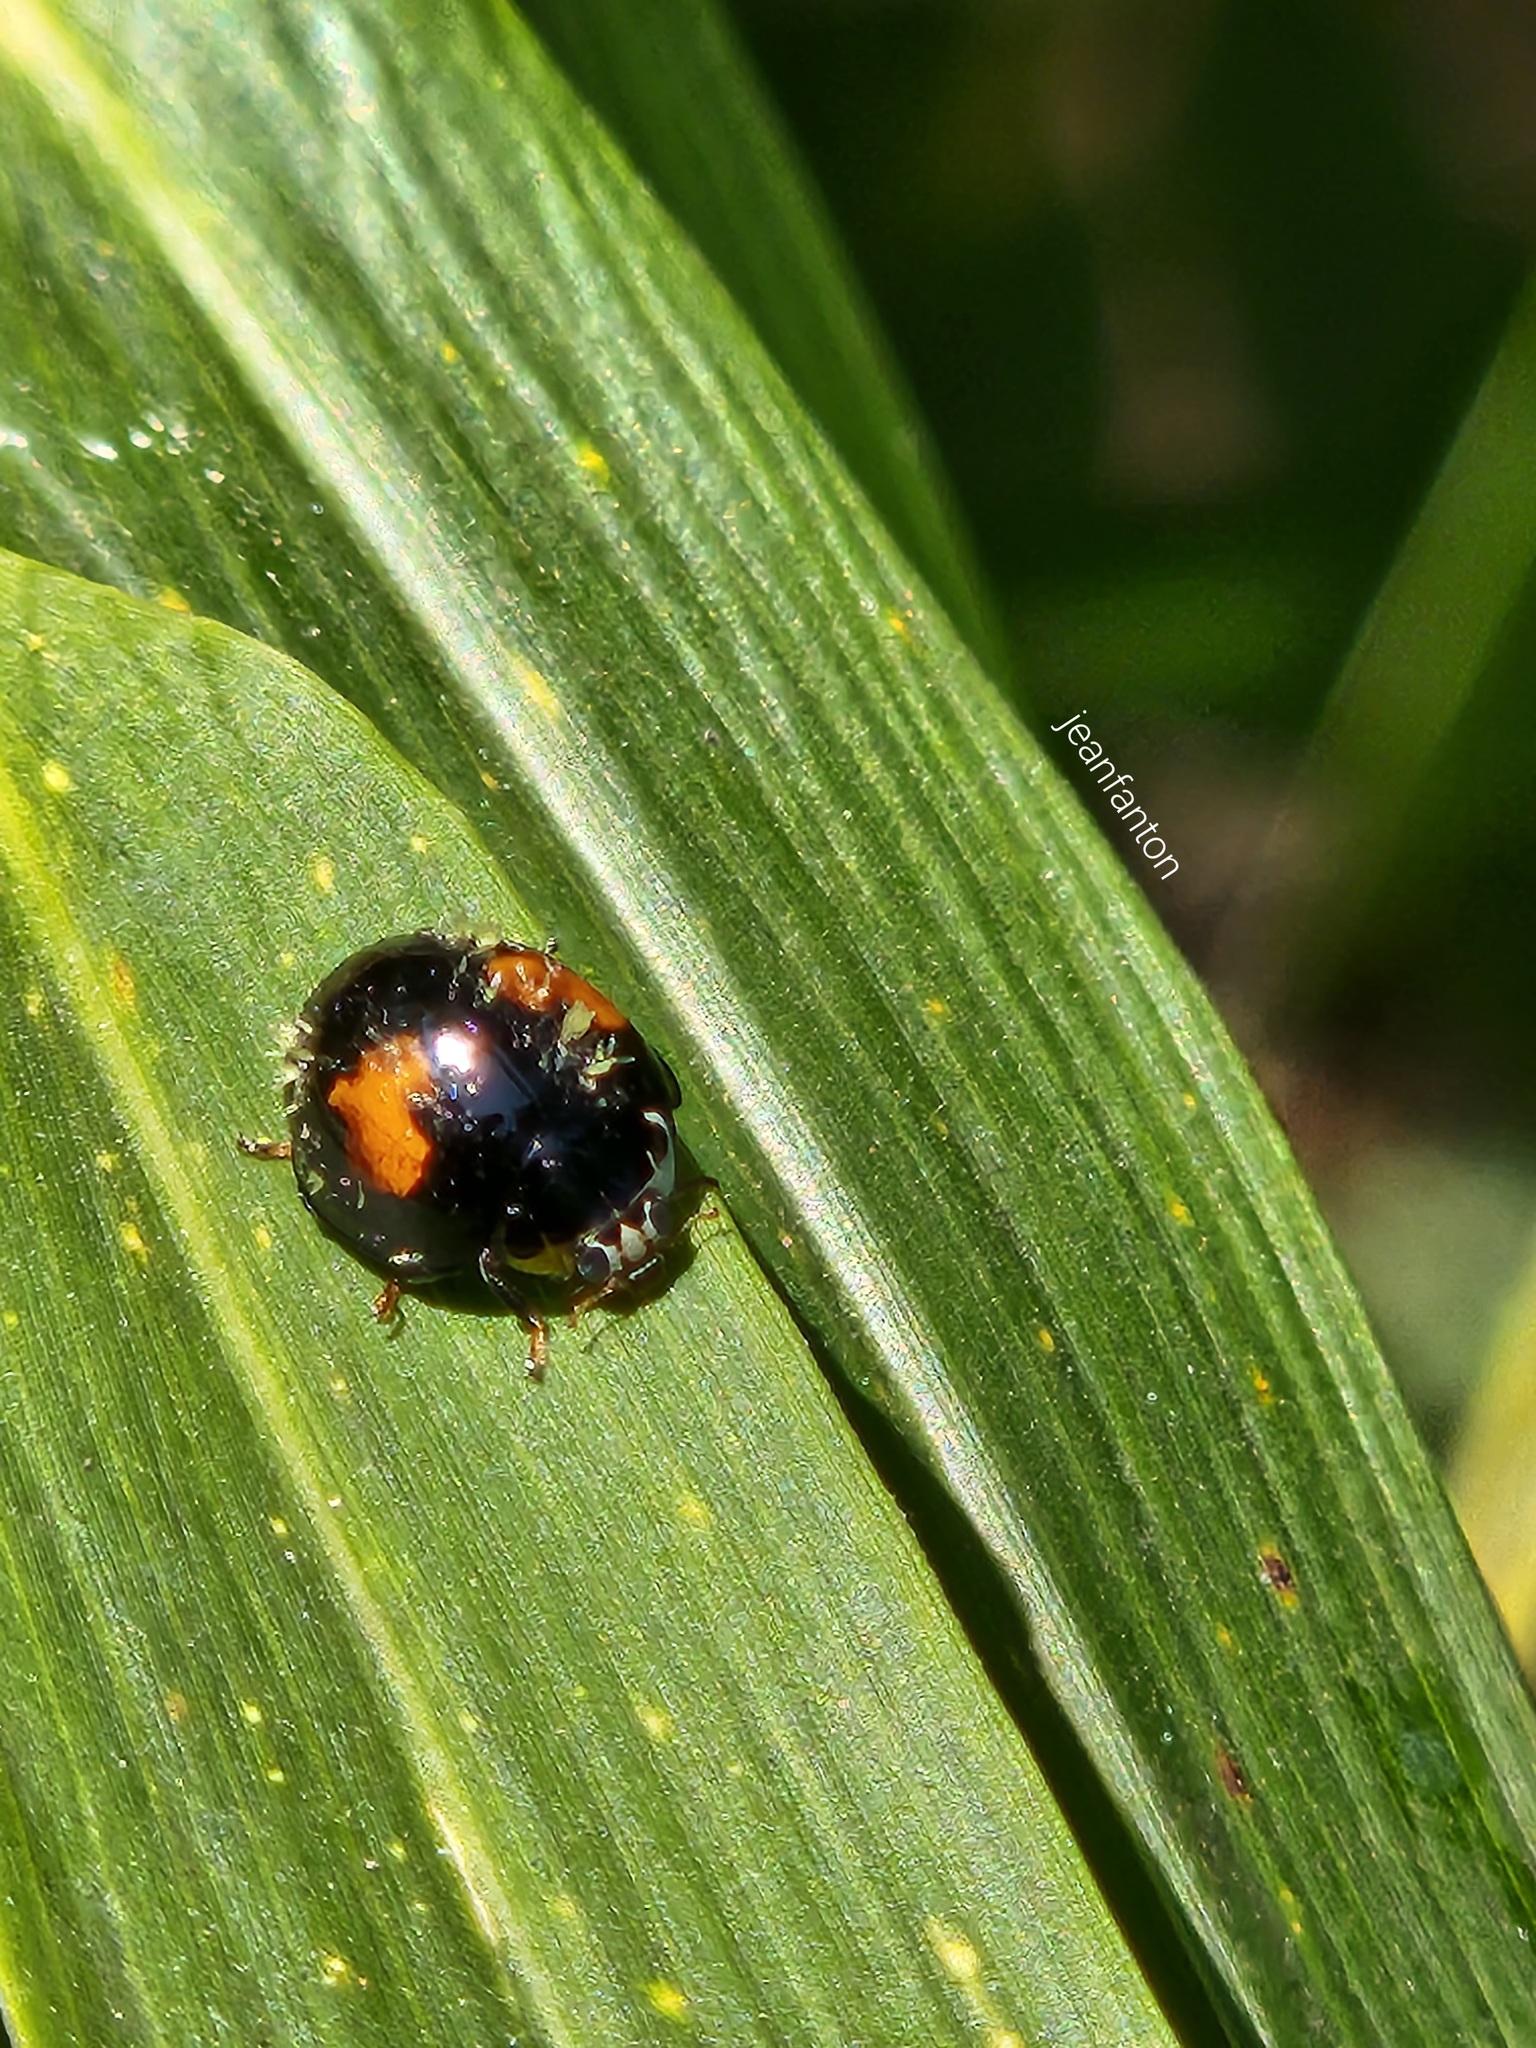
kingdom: Animalia
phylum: Arthropoda
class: Insecta
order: Coleoptera
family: Coccinellidae
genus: Olla
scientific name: Olla v-nigrum
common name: Ashy gray lady beetle
